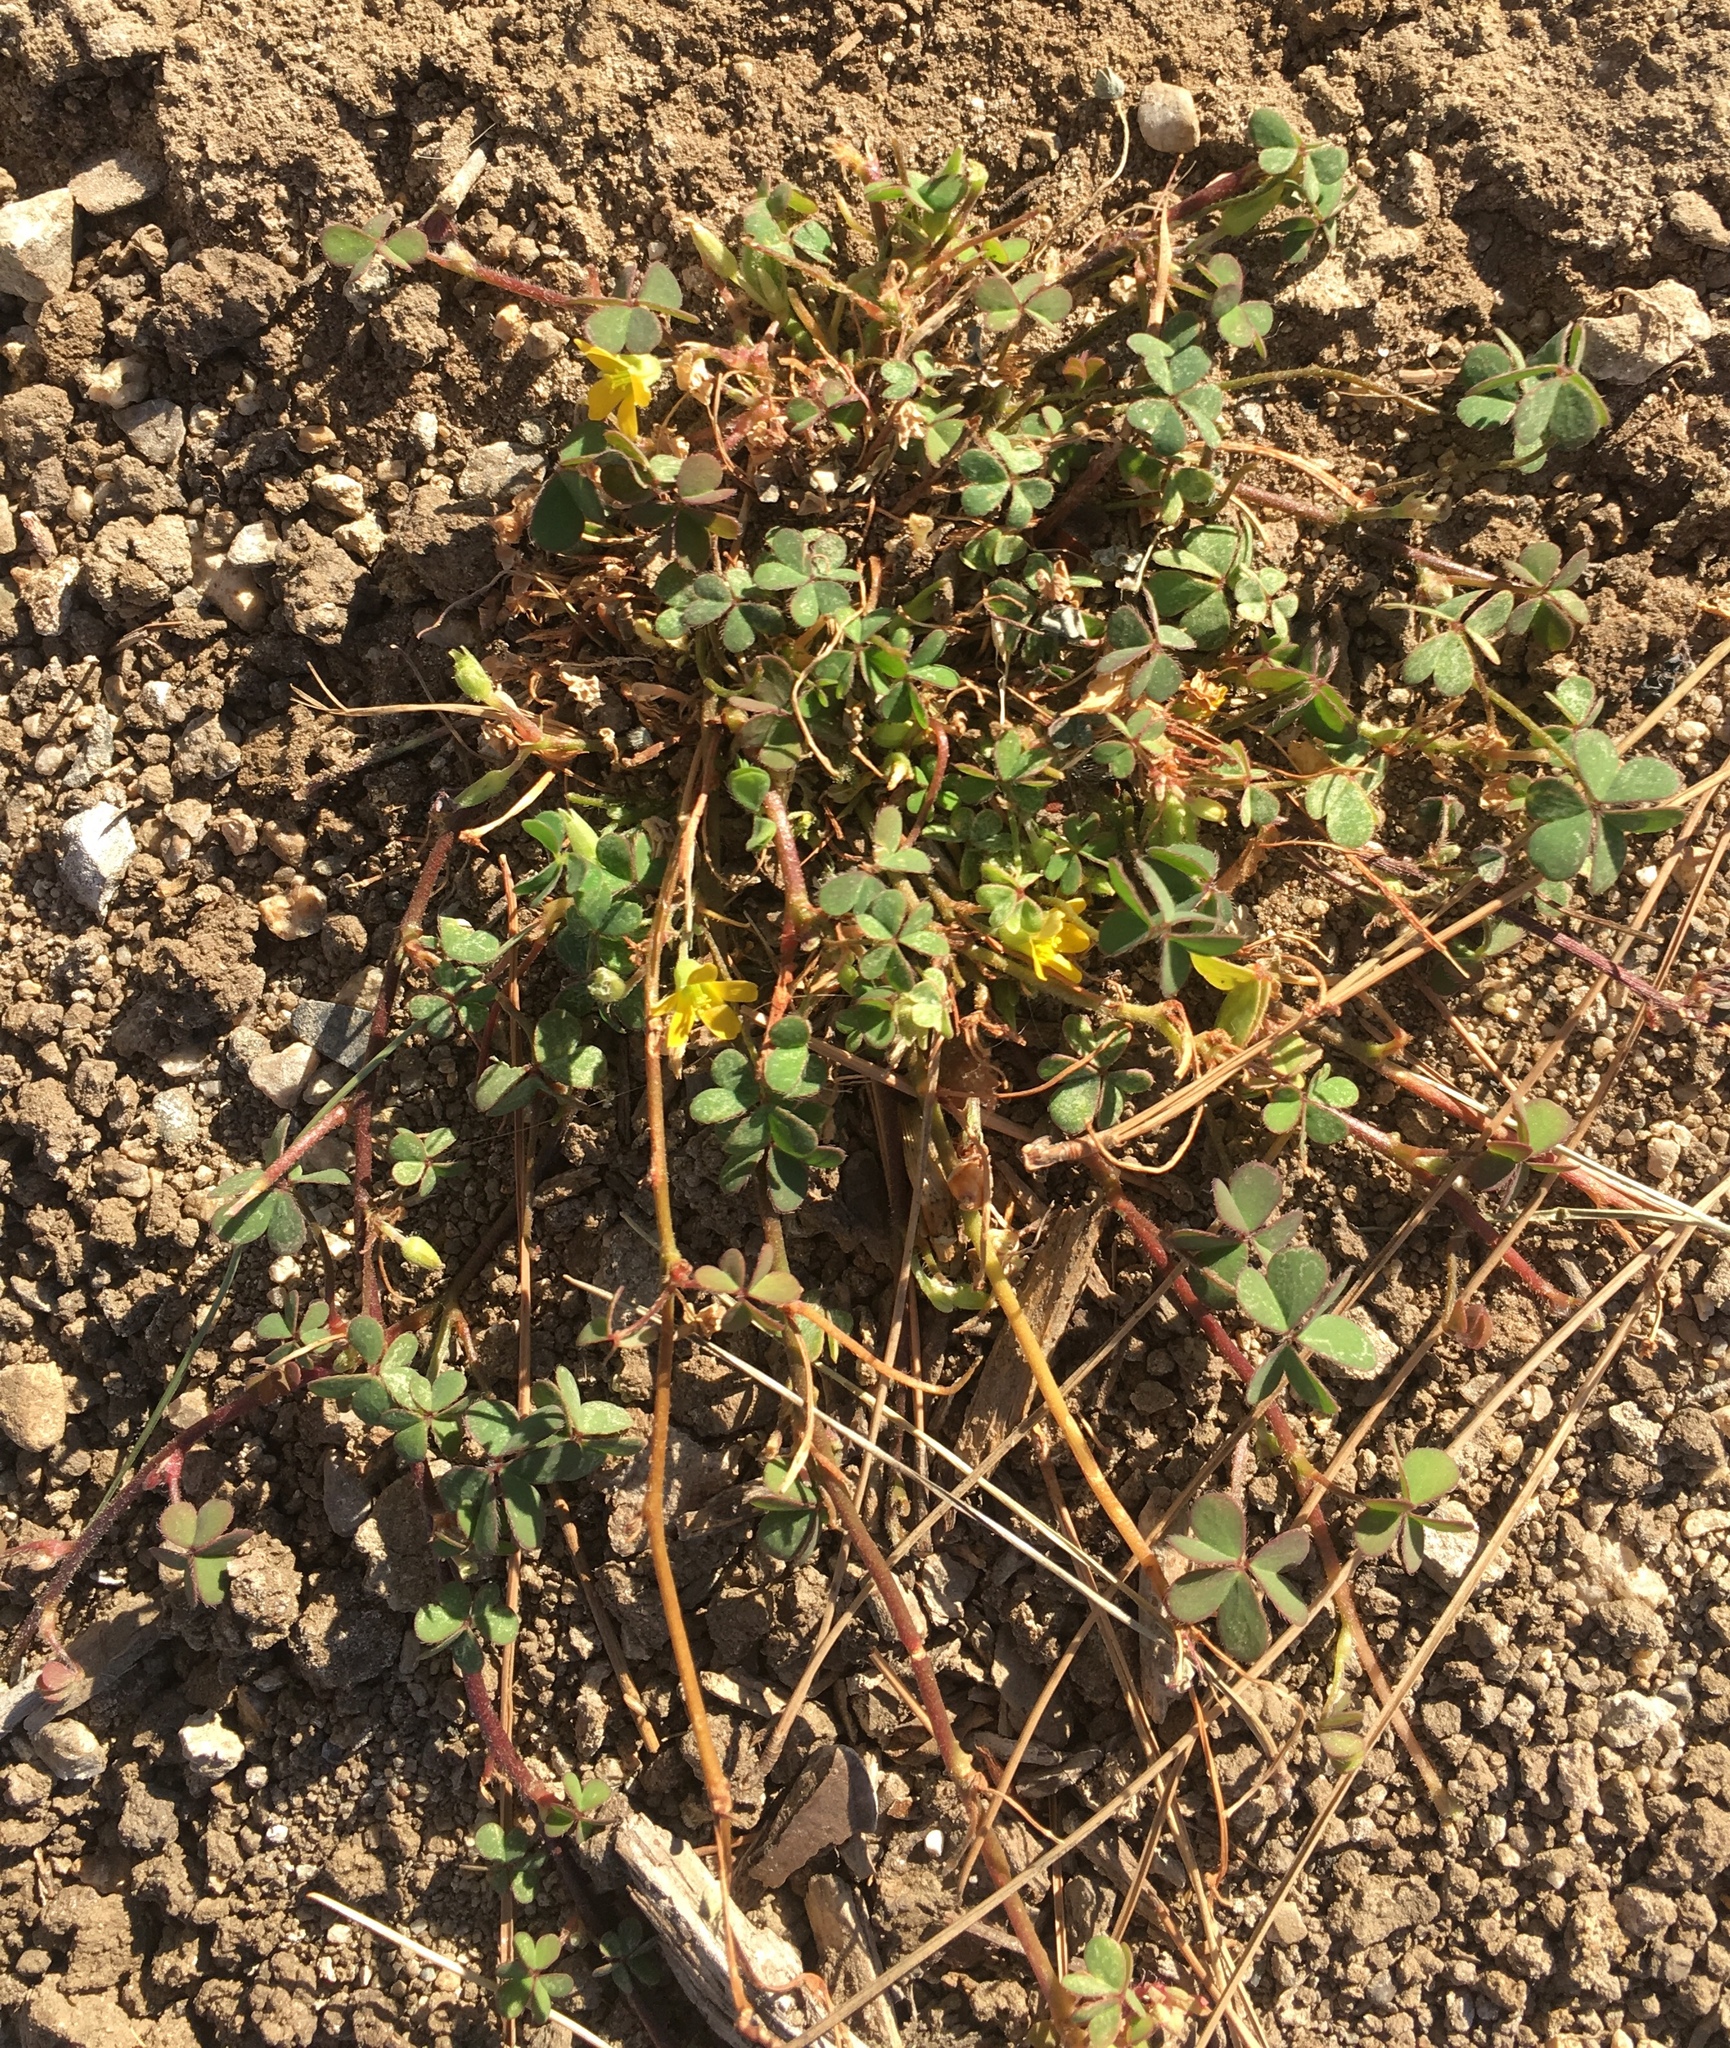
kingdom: Plantae
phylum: Tracheophyta
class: Magnoliopsida
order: Oxalidales
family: Oxalidaceae
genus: Oxalis
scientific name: Oxalis corniculata
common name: Procumbent yellow-sorrel
